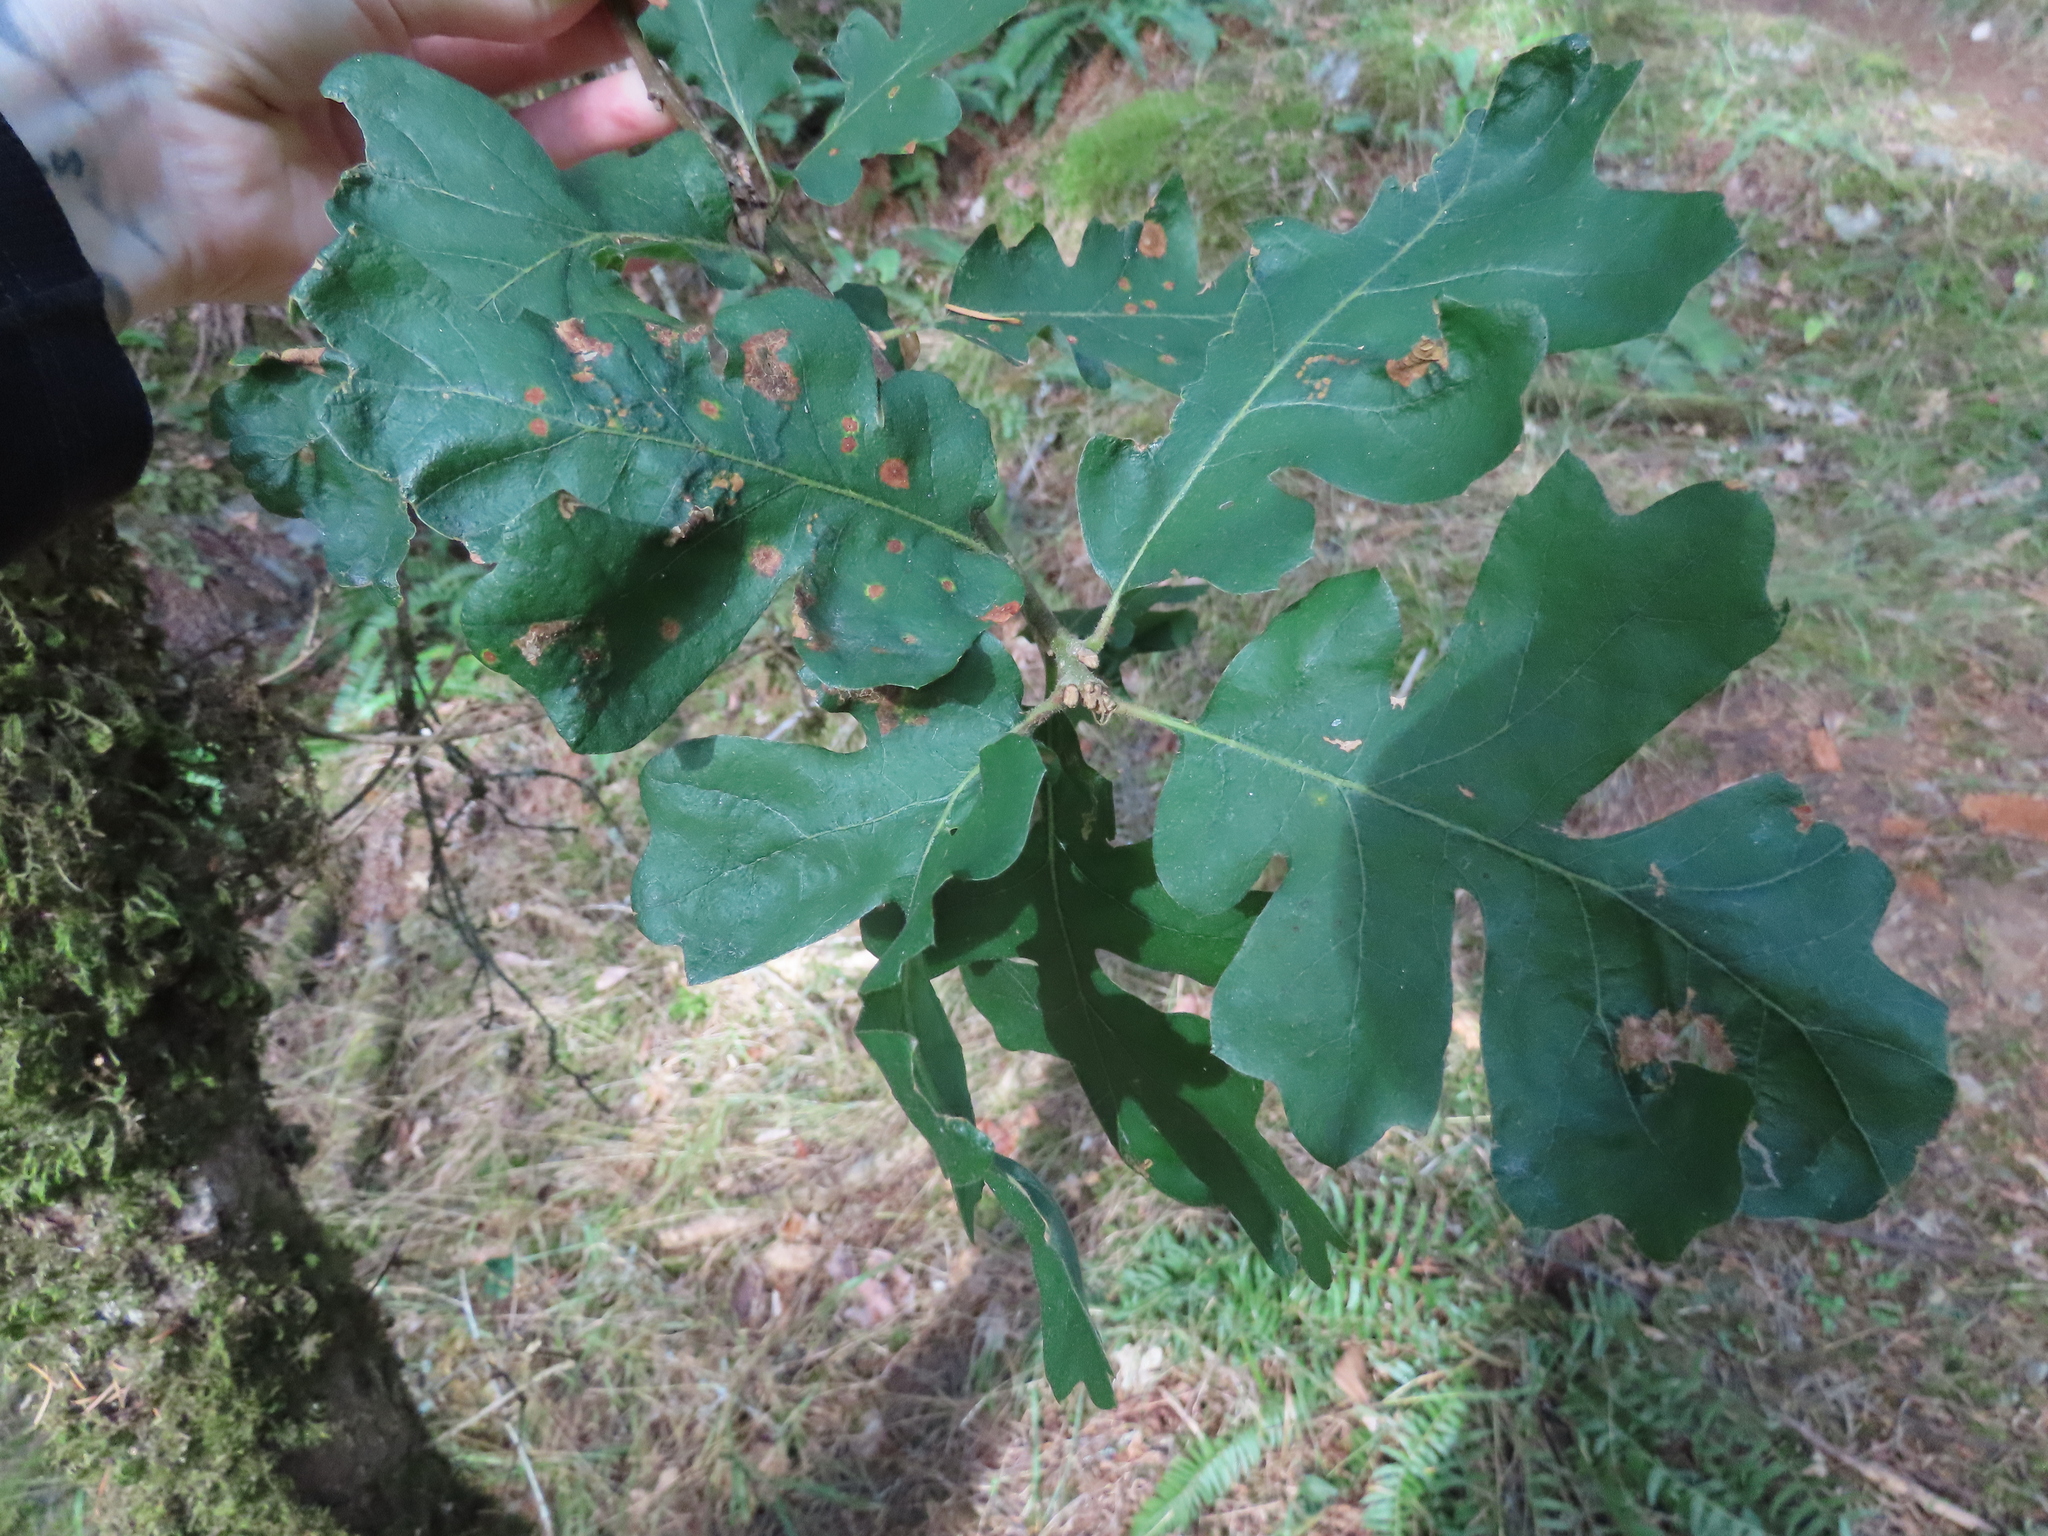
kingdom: Plantae
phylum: Tracheophyta
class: Magnoliopsida
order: Fagales
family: Fagaceae
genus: Quercus
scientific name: Quercus garryana
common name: Garry oak
